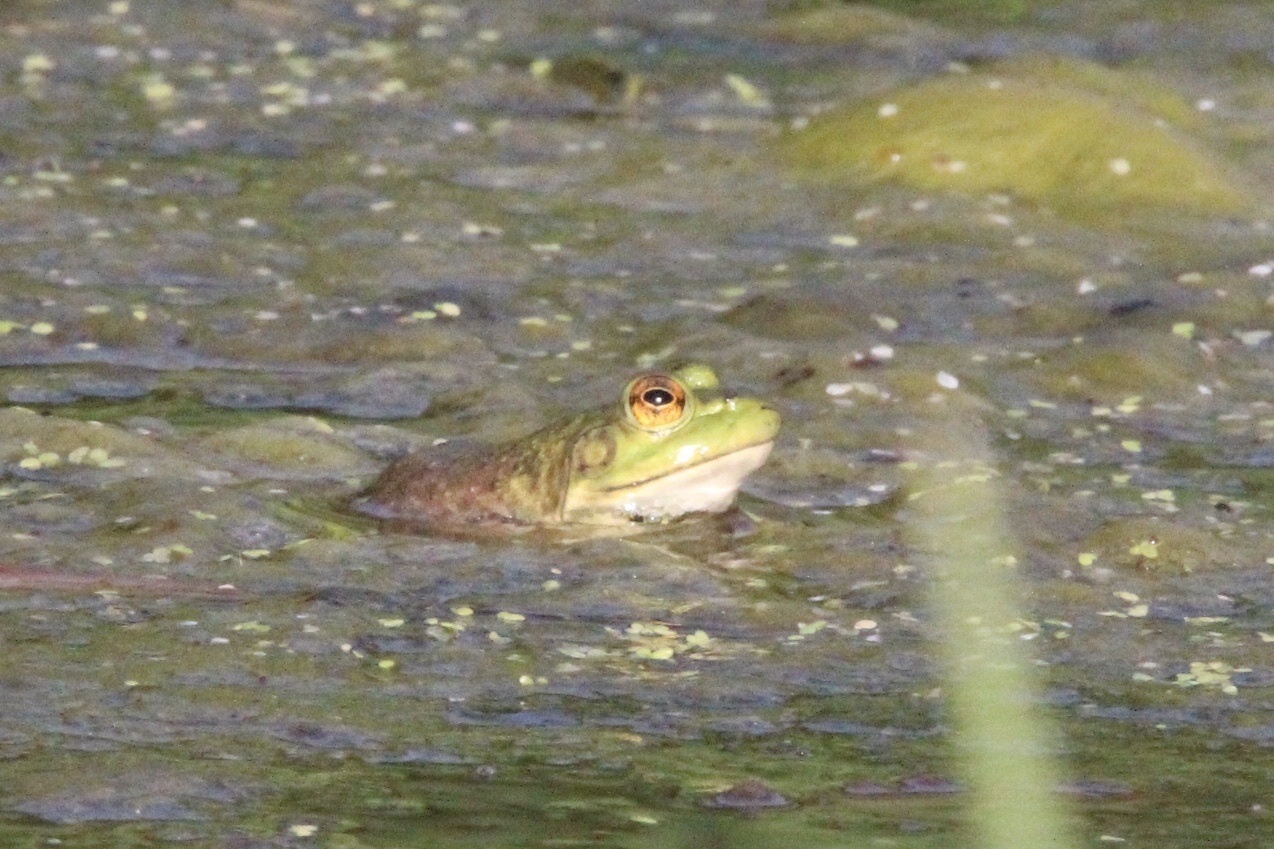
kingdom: Animalia
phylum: Chordata
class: Amphibia
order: Anura
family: Ranidae
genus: Lithobates
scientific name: Lithobates catesbeianus
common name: American bullfrog
